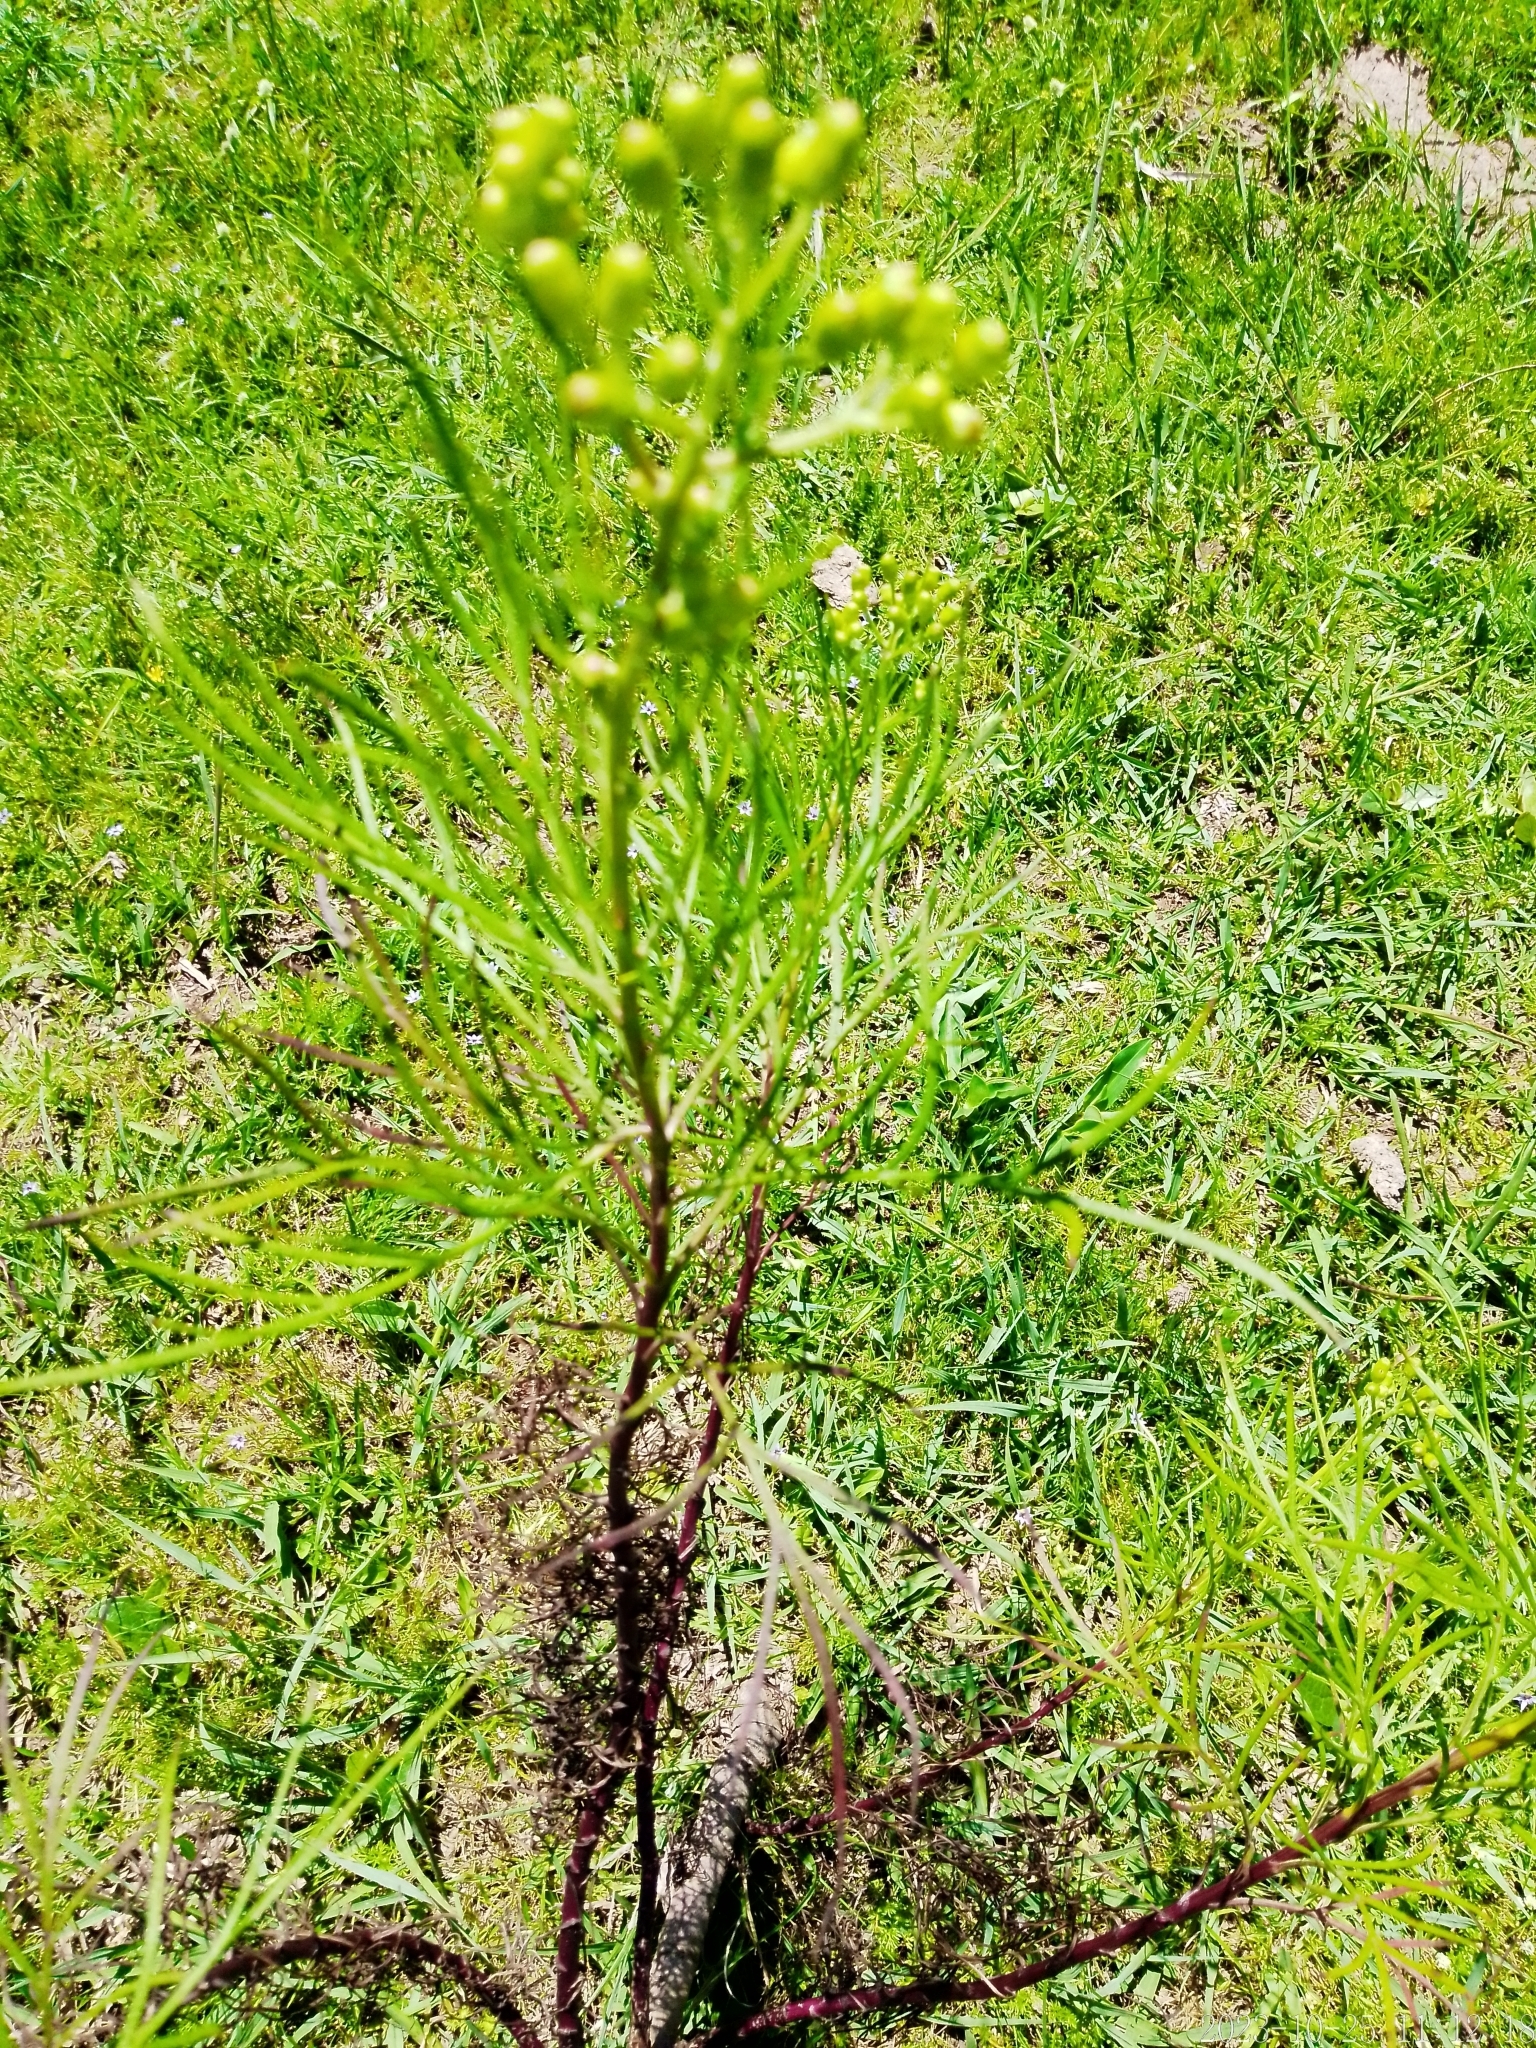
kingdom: Plantae
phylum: Tracheophyta
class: Magnoliopsida
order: Asterales
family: Asteraceae
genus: Senecio
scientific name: Senecio brasiliensis
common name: Hemp-leaf ragwort
